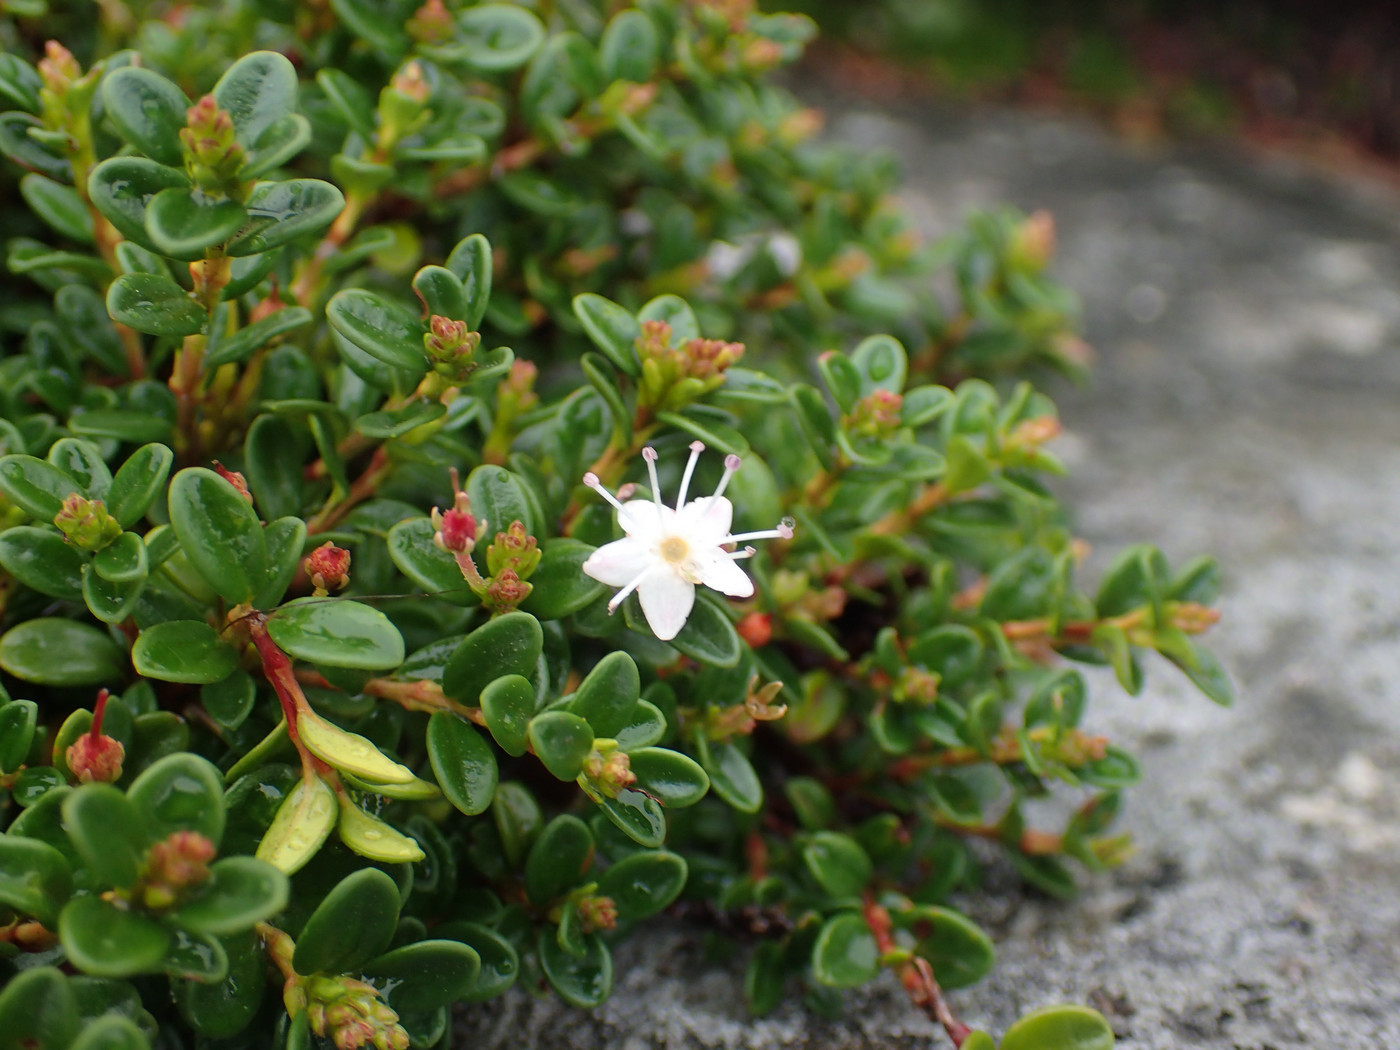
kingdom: Plantae
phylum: Tracheophyta
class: Magnoliopsida
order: Ericales
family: Ericaceae
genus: Kalmia
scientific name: Kalmia buxifolia
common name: Sandmyrtle
